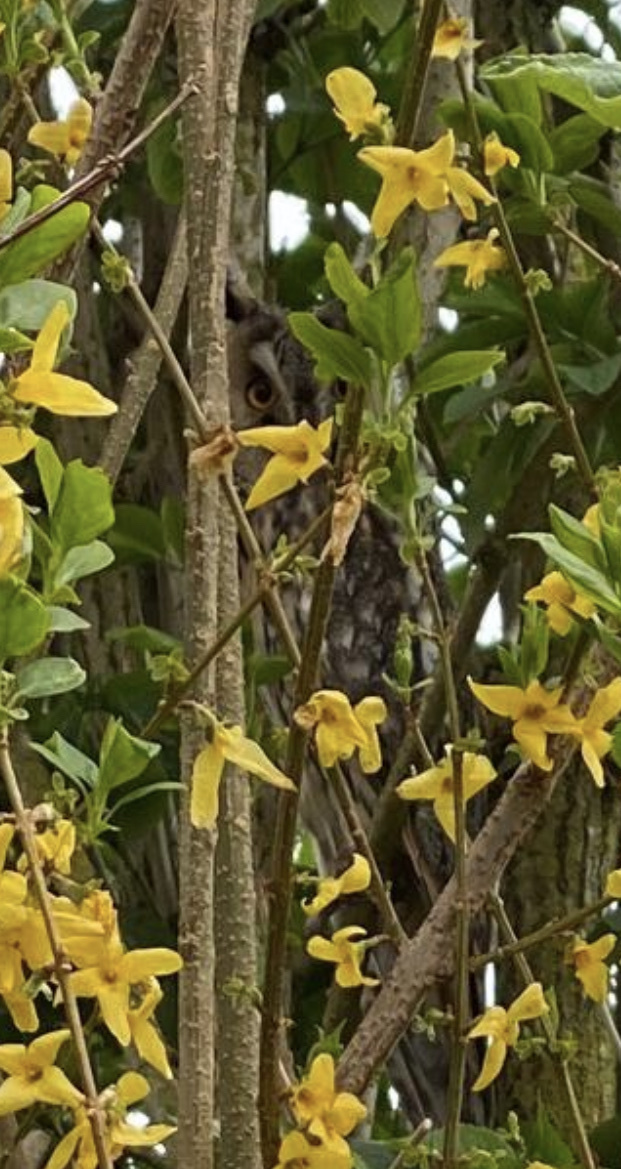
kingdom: Animalia
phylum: Chordata
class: Aves
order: Strigiformes
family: Strigidae
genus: Asio
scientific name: Asio otus
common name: Long-eared owl
